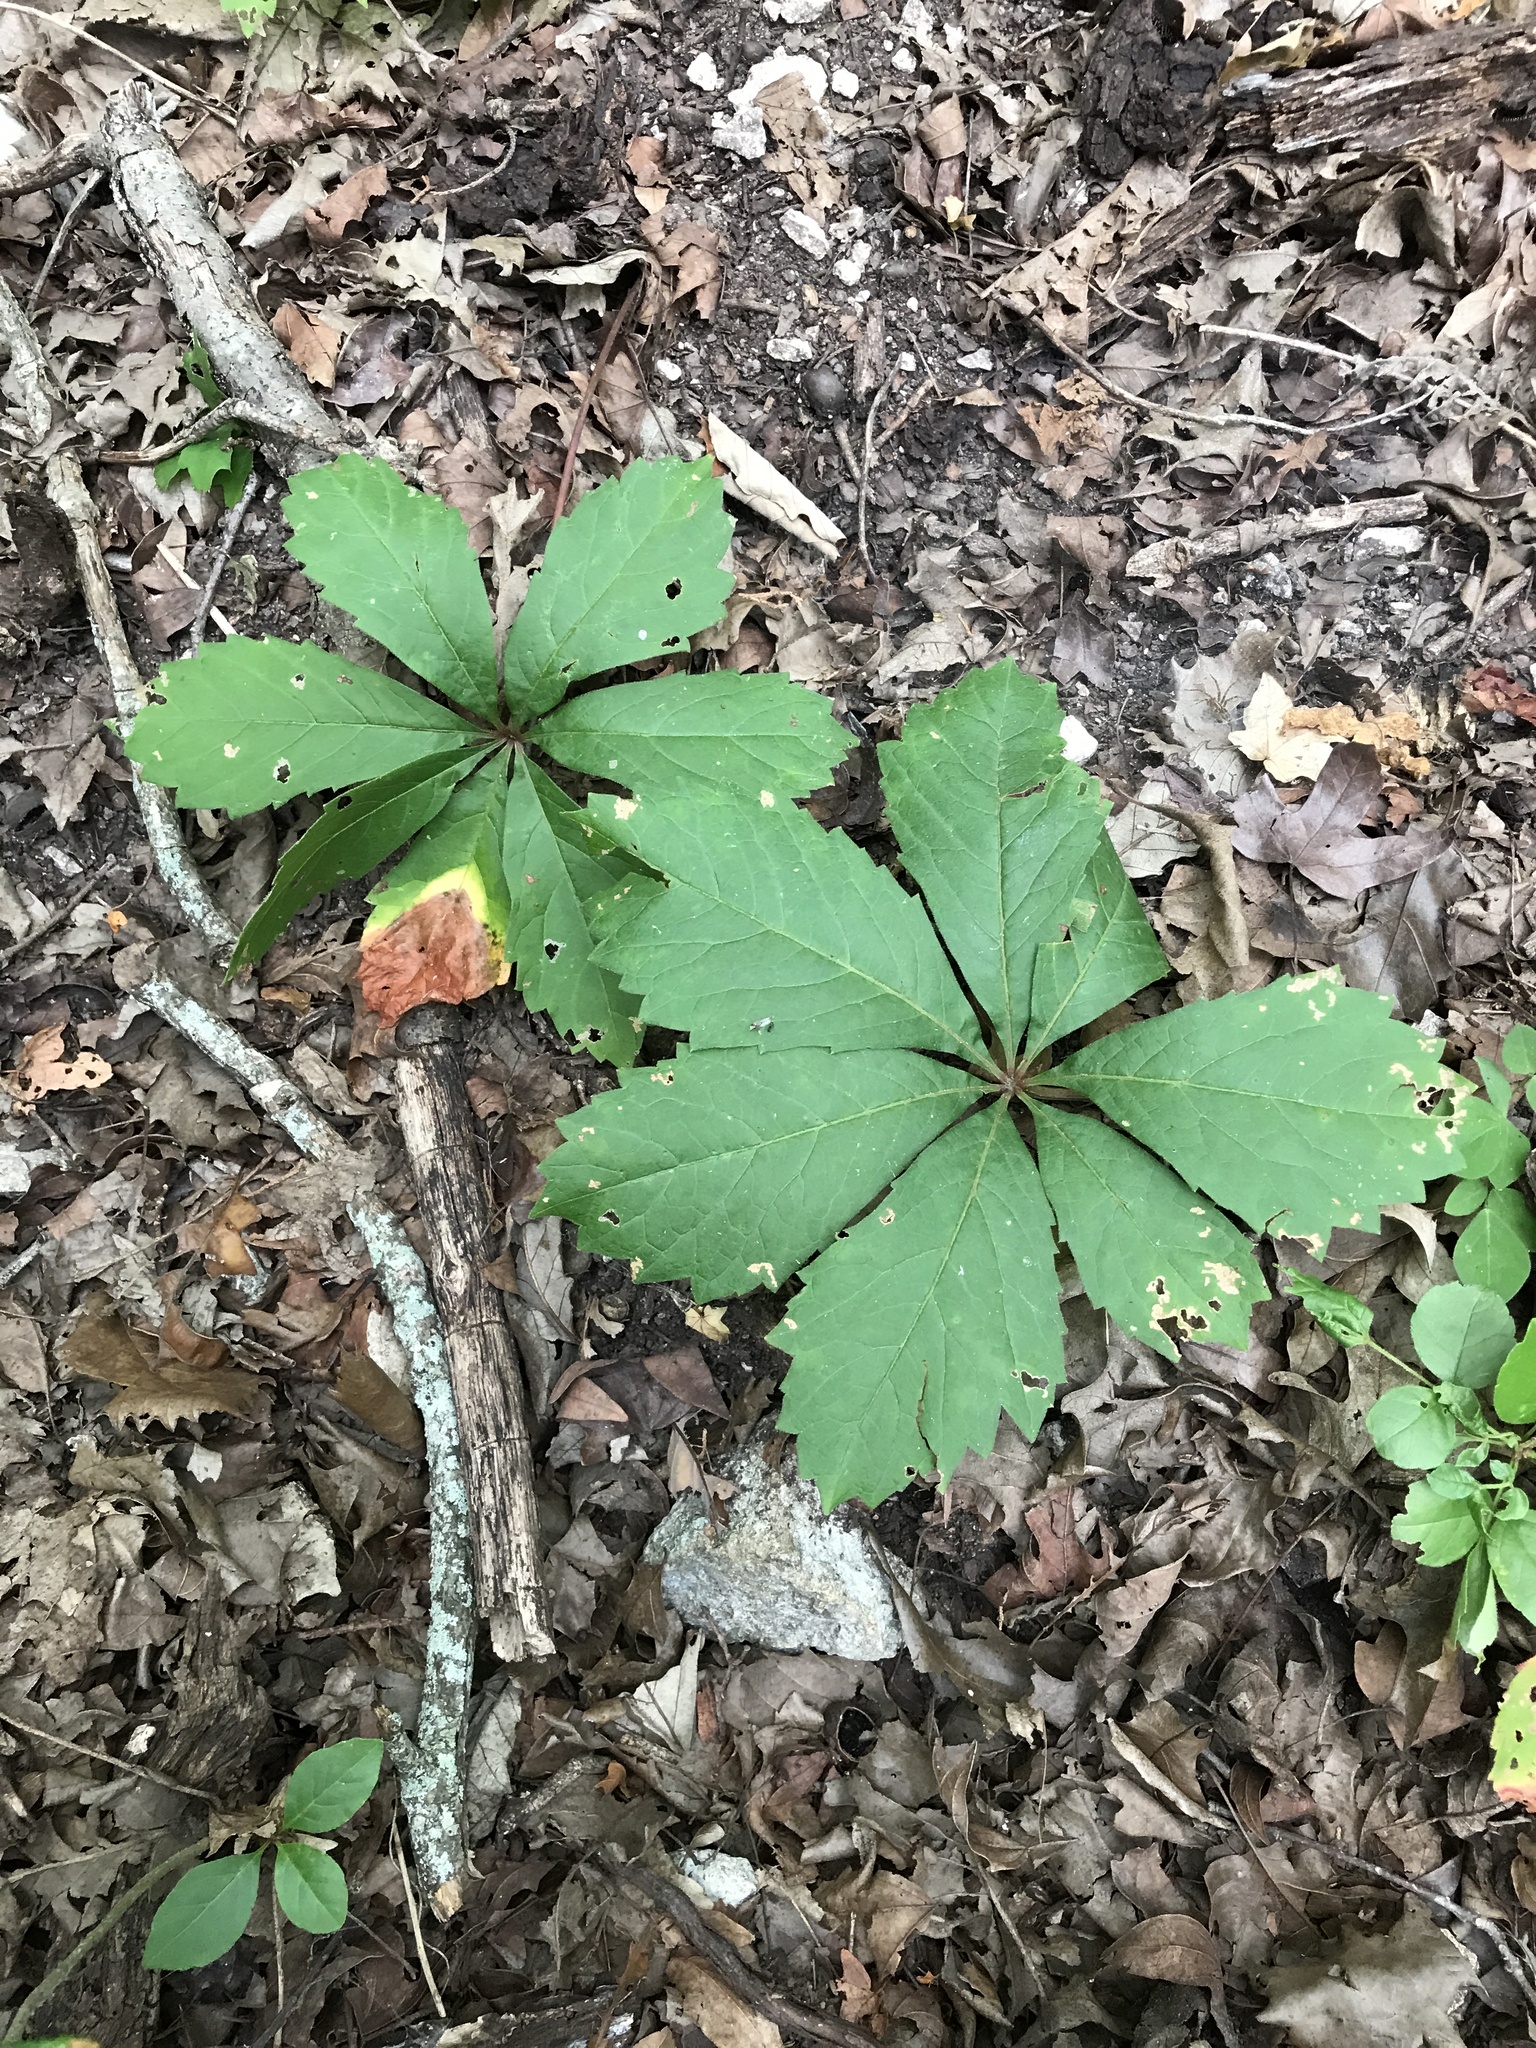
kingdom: Plantae
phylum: Tracheophyta
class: Magnoliopsida
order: Vitales
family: Vitaceae
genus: Parthenocissus
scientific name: Parthenocissus heptaphylla
